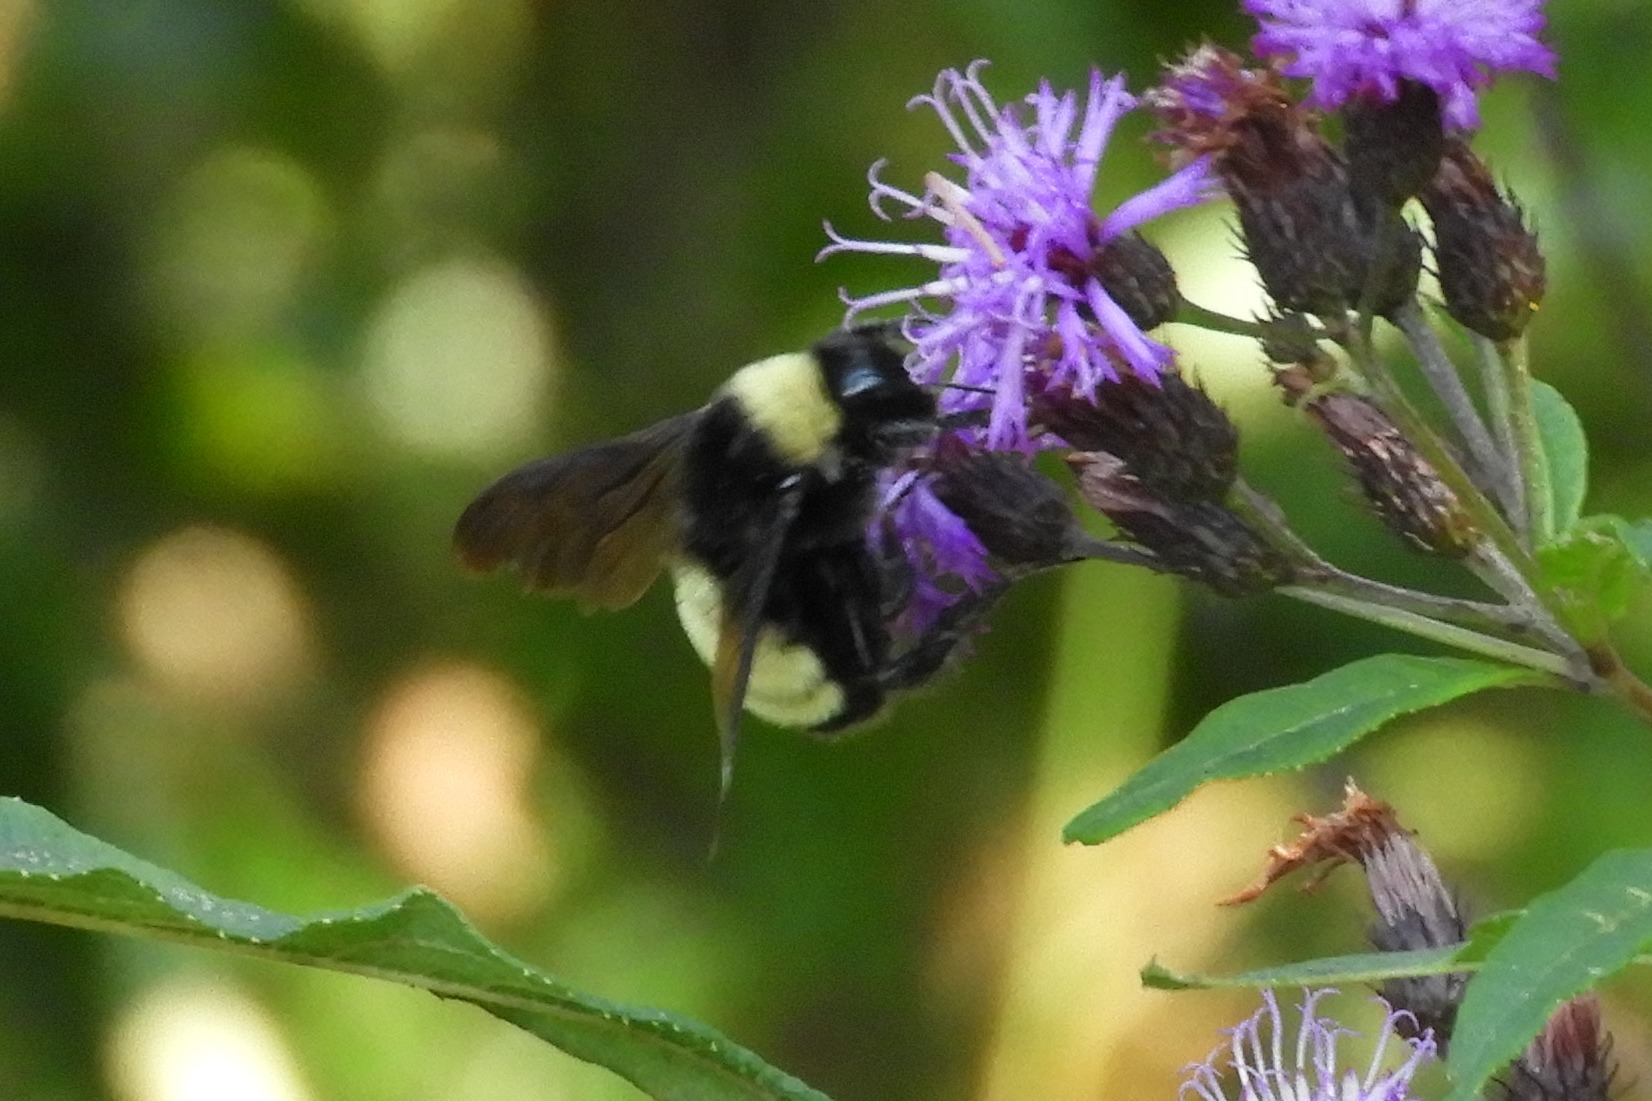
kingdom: Animalia
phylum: Arthropoda
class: Insecta
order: Hymenoptera
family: Apidae
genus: Bombus
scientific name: Bombus pensylvanicus
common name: Bumble bee
